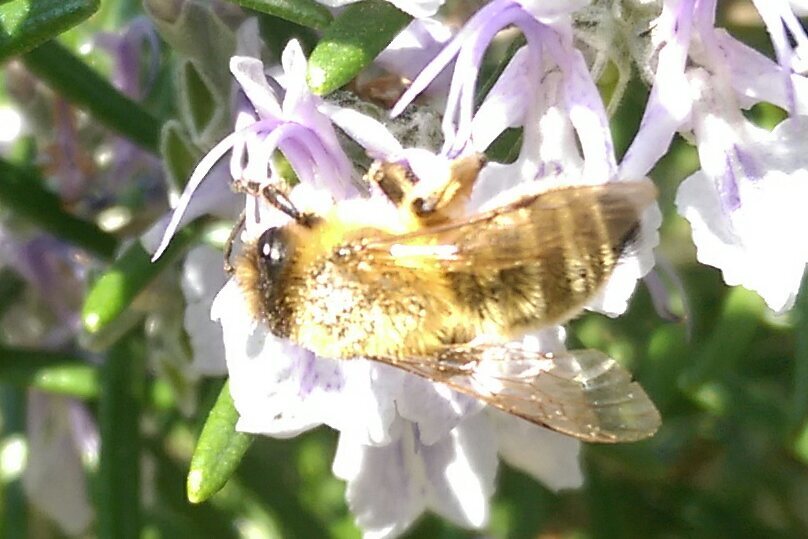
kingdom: Animalia
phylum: Arthropoda
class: Insecta
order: Hymenoptera
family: Andrenidae
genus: Andrena
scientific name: Andrena nigroaenea
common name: Buffish mining bee
